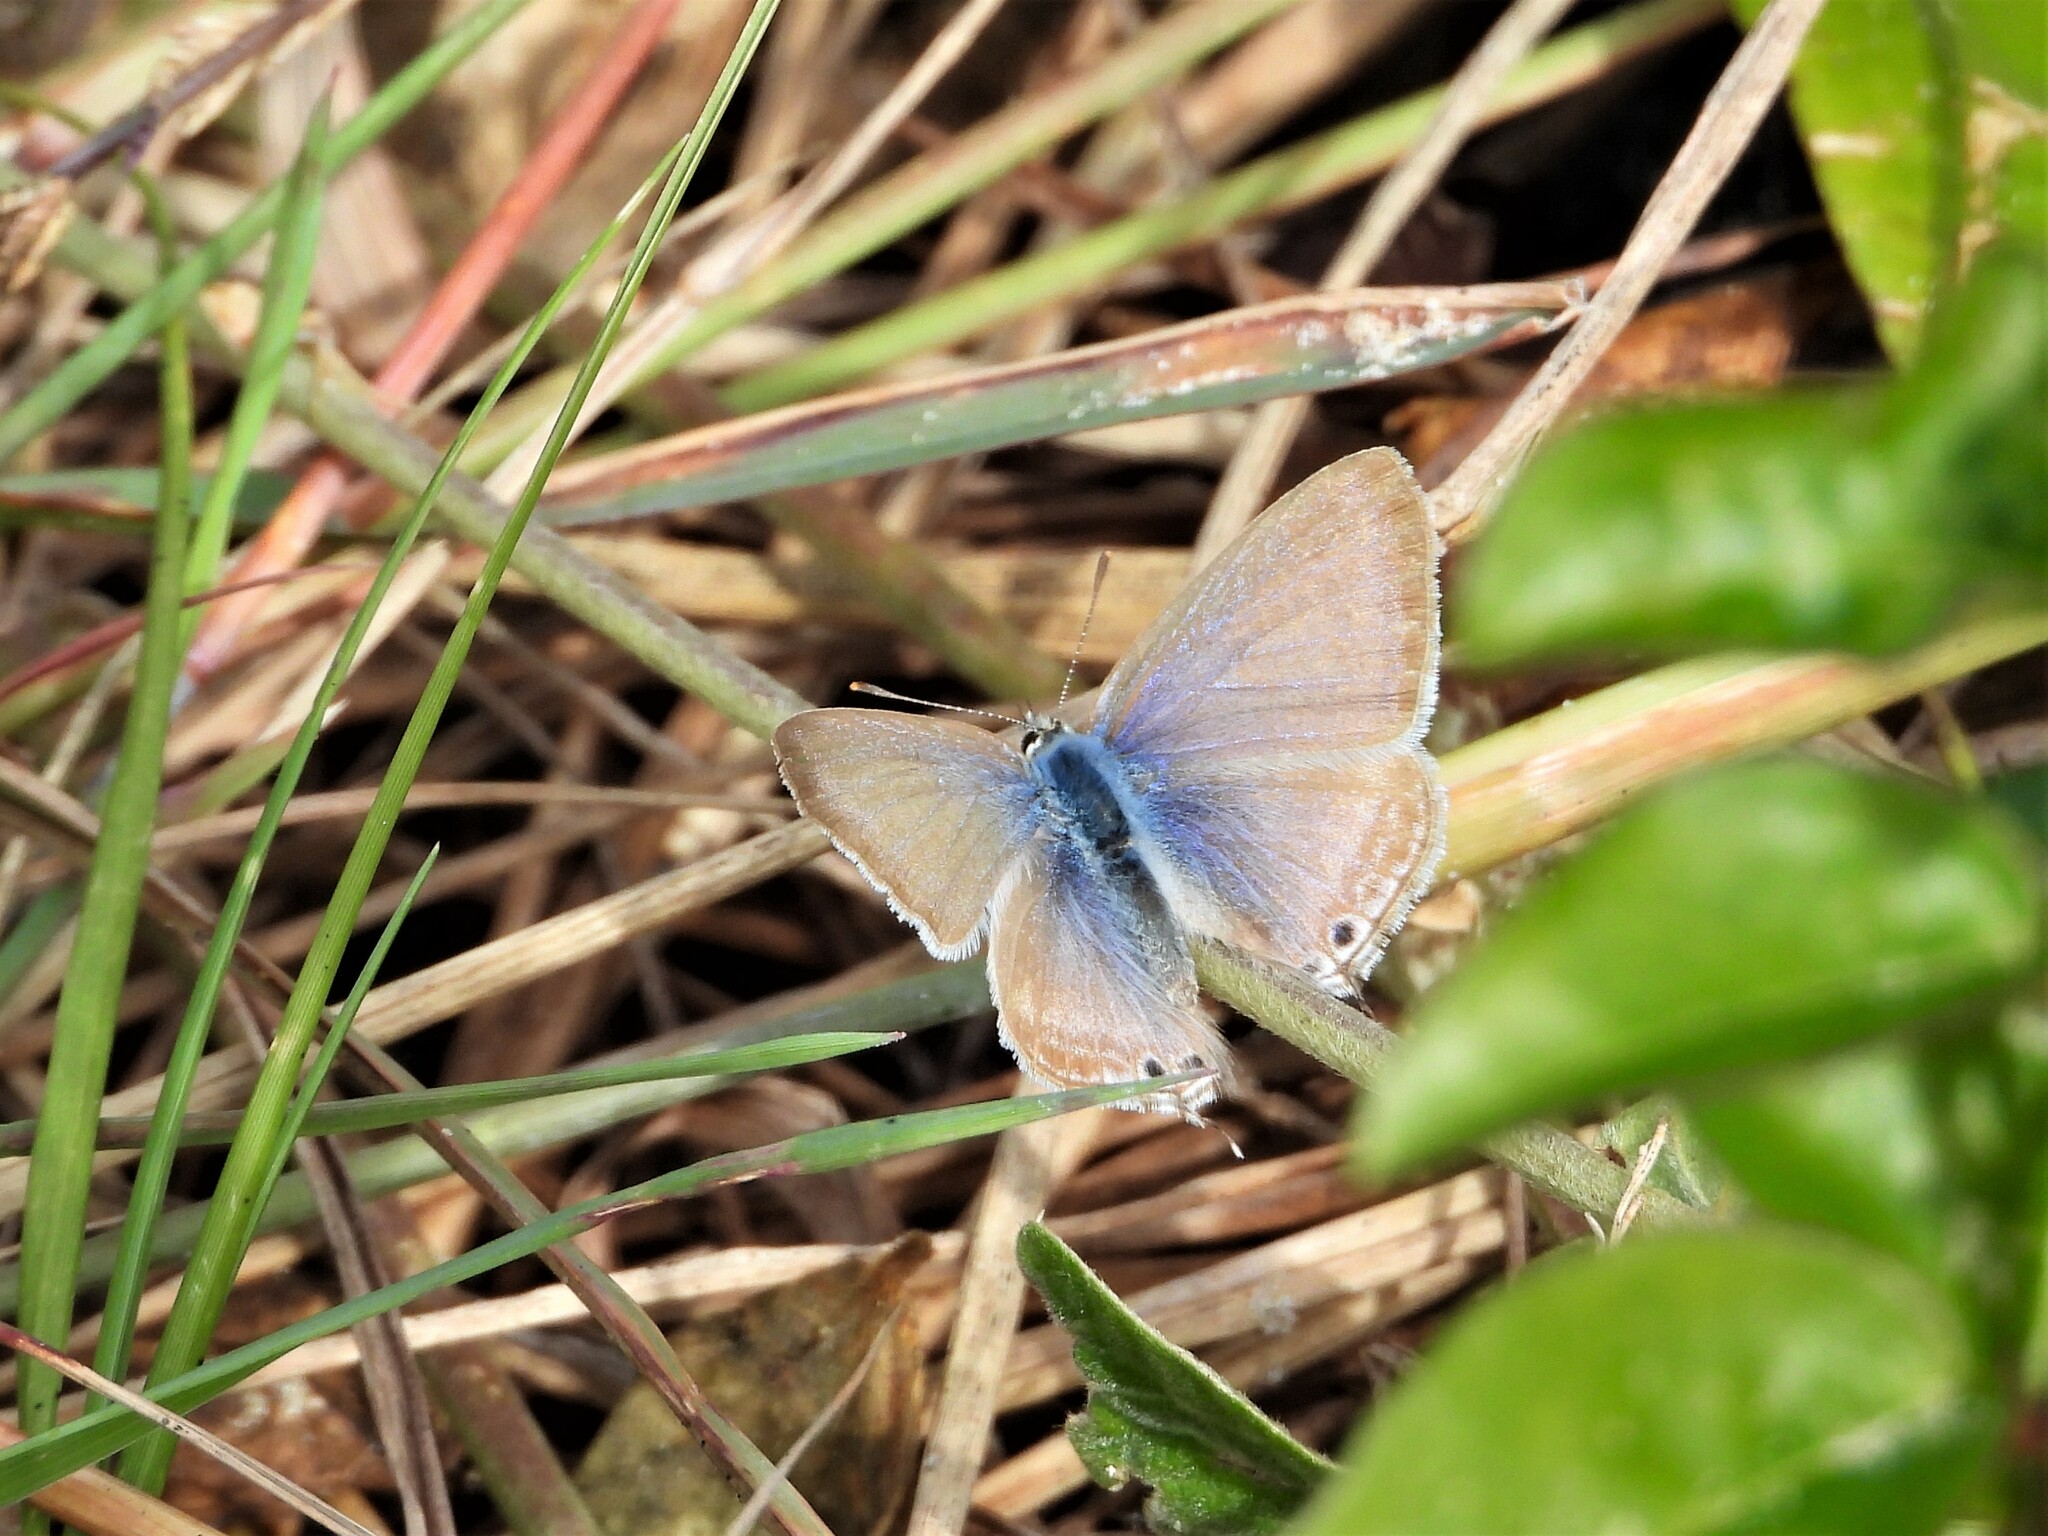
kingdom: Animalia
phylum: Arthropoda
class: Insecta
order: Lepidoptera
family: Lycaenidae
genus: Lampides
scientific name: Lampides boeticus
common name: Long-tailed blue
